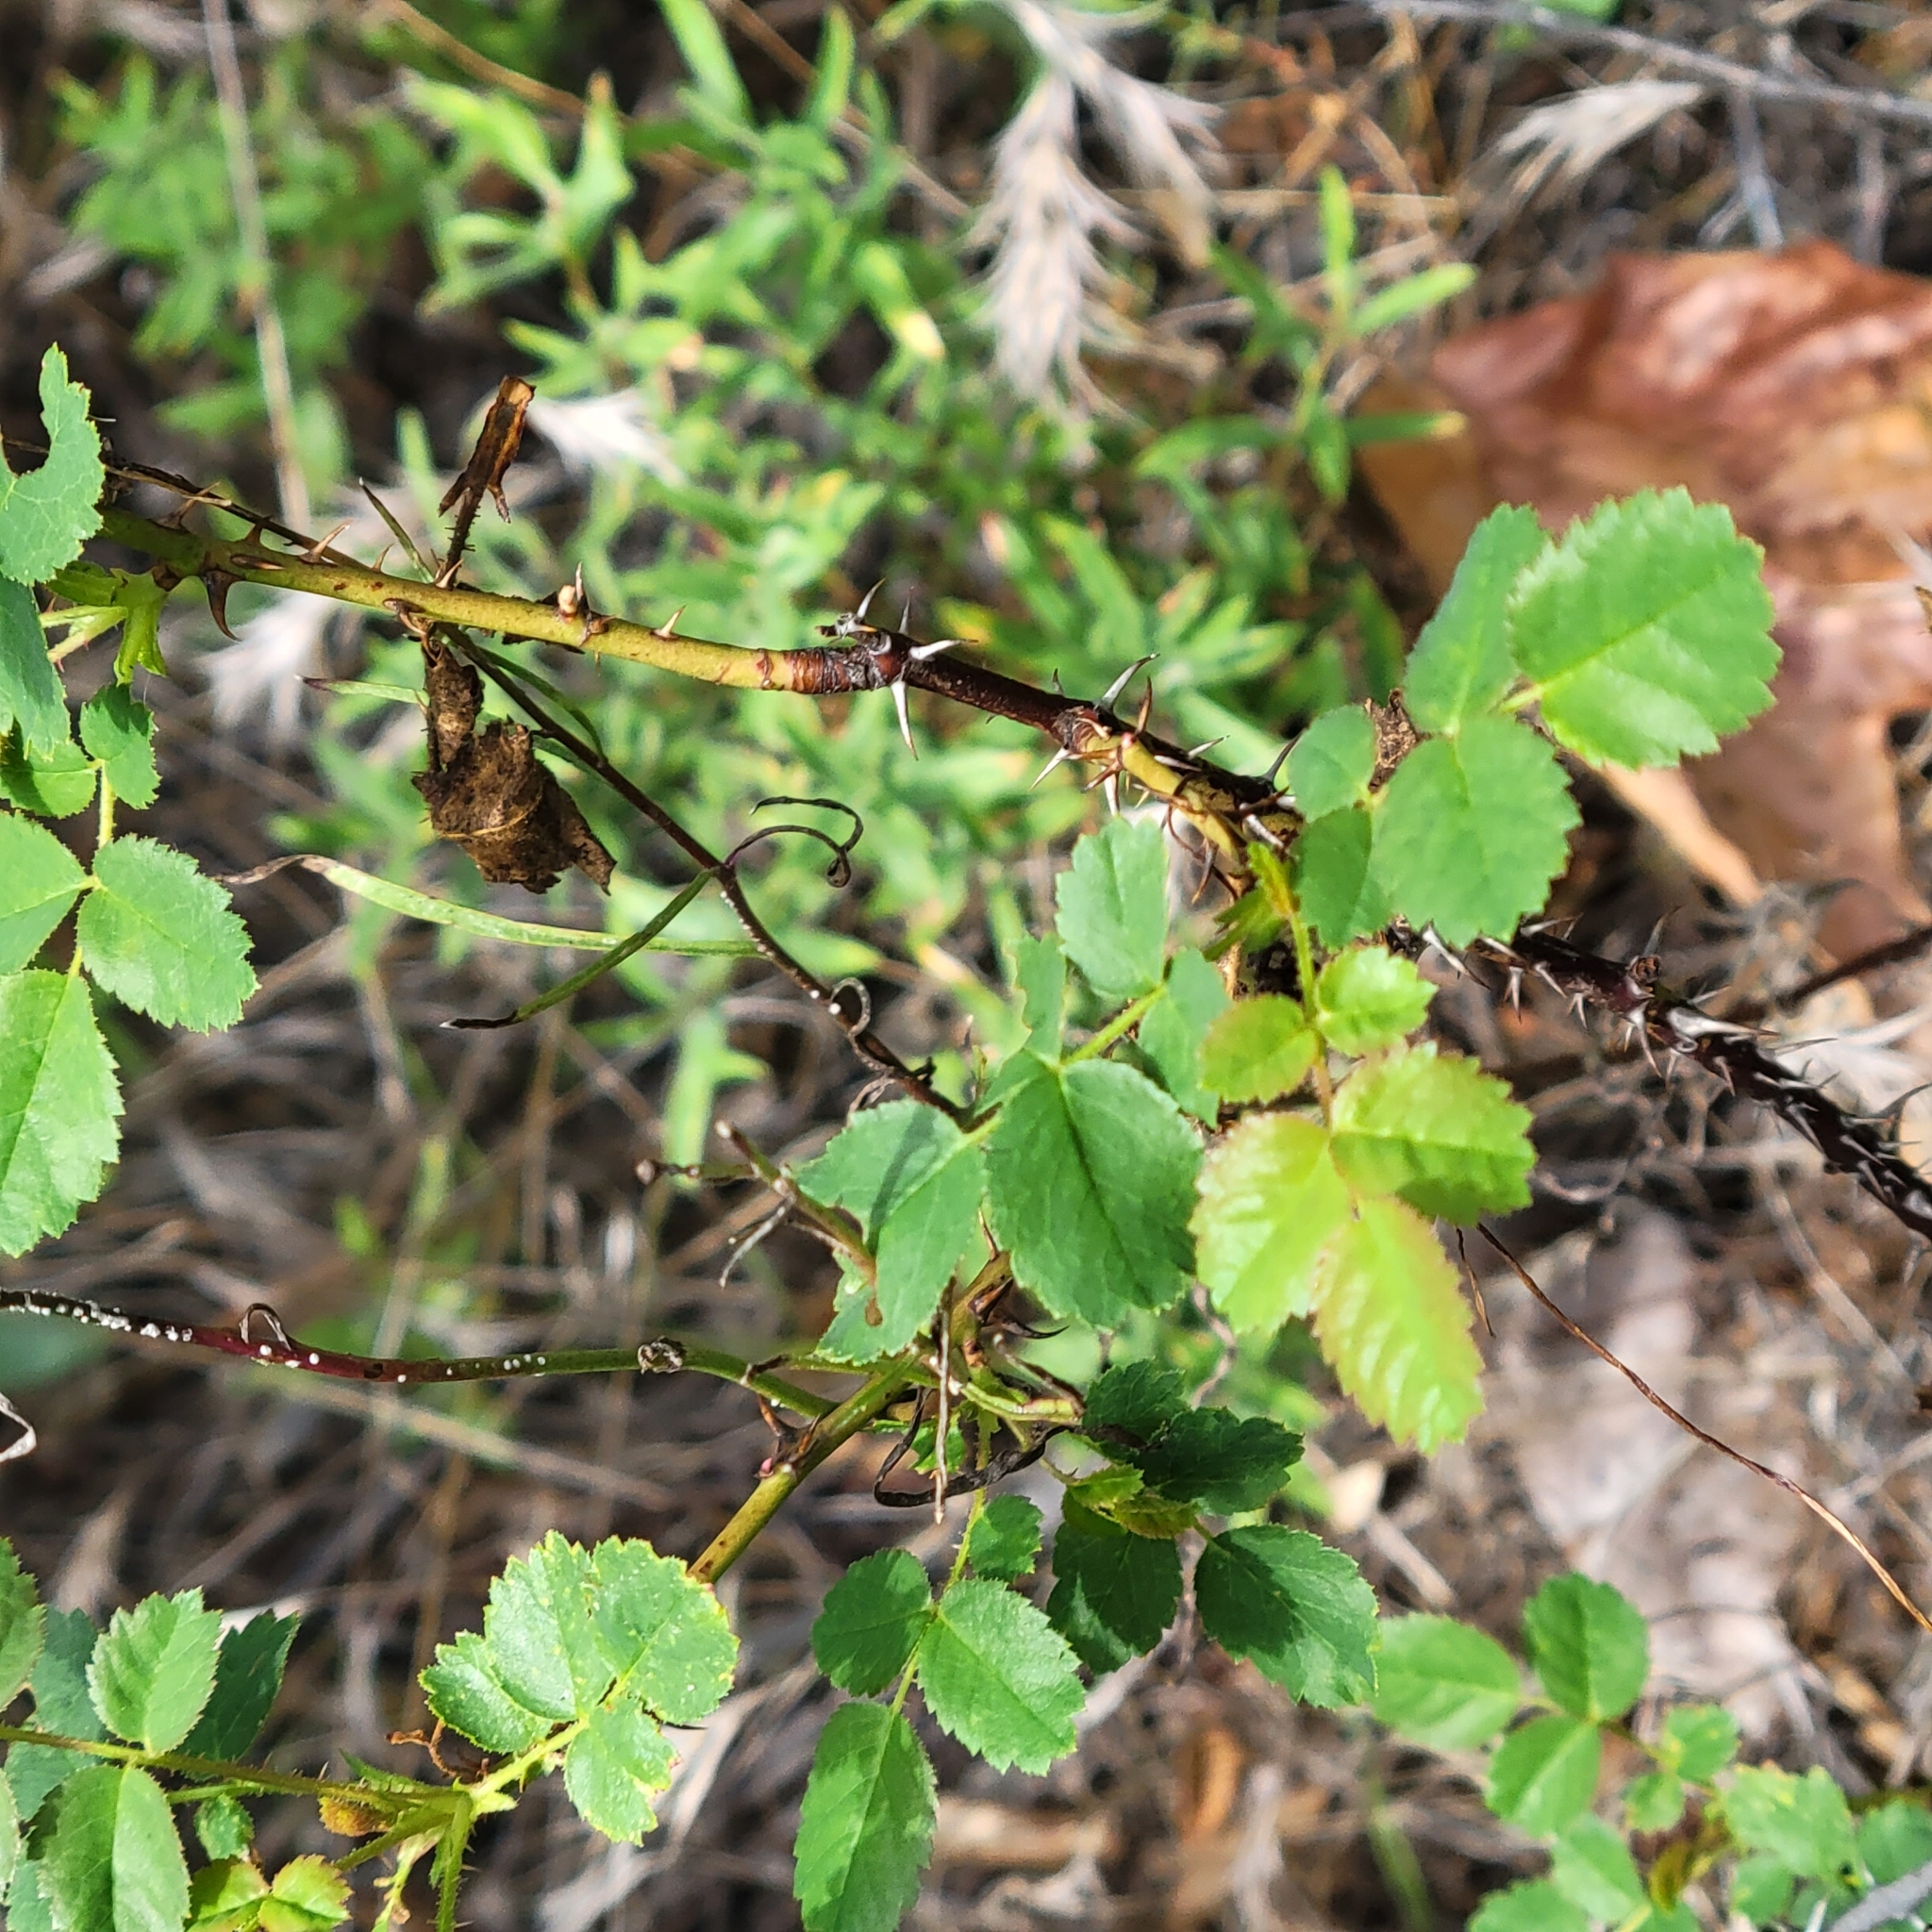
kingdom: Plantae
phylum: Tracheophyta
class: Magnoliopsida
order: Rosales
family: Rosaceae
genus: Rosa
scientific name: Rosa californica
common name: California rose
